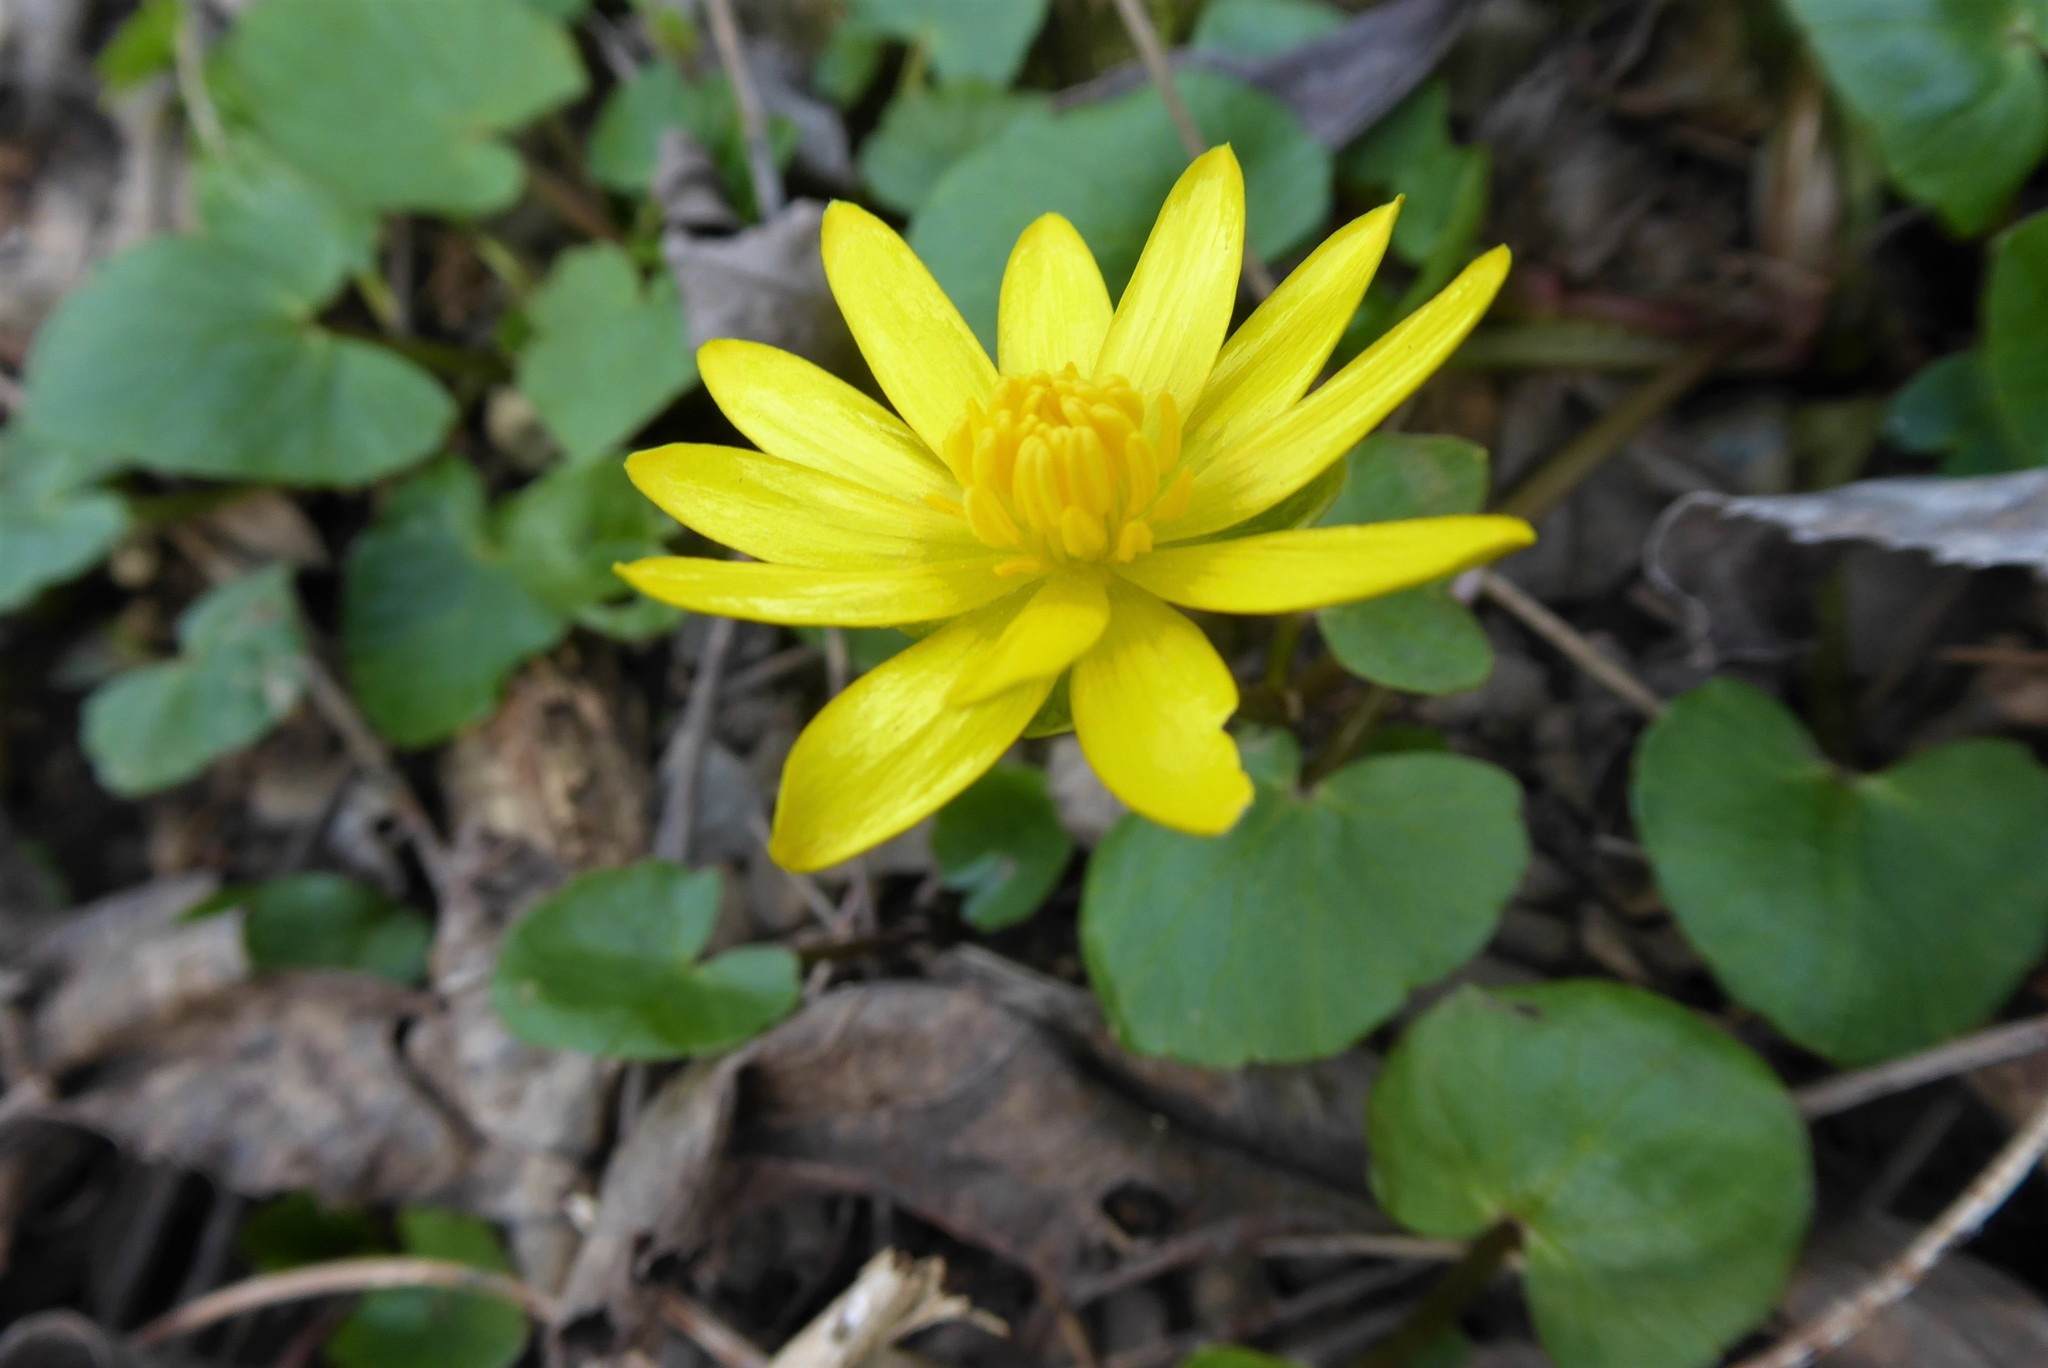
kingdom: Plantae
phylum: Tracheophyta
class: Magnoliopsida
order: Ranunculales
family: Ranunculaceae
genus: Ficaria
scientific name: Ficaria verna
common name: Lesser celandine
